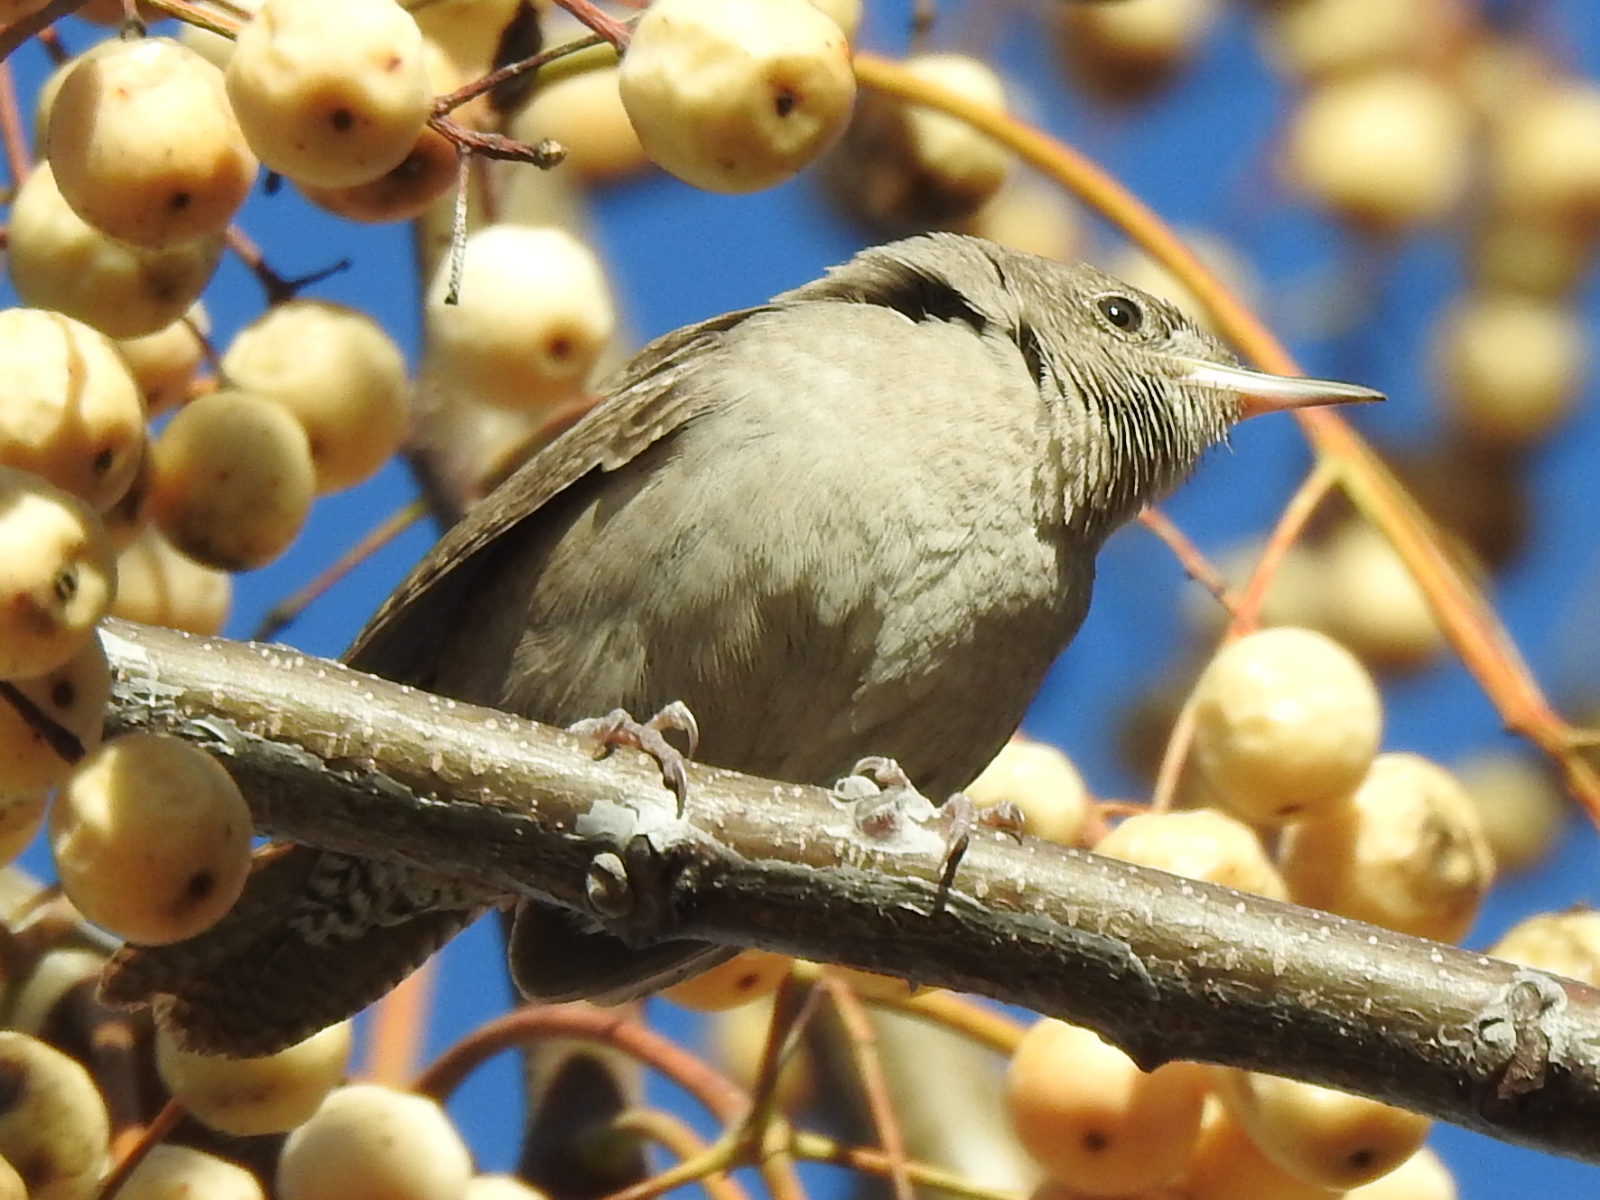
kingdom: Animalia
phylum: Chordata
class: Aves
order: Passeriformes
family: Troglodytidae
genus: Troglodytes
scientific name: Troglodytes aedon
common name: House wren
